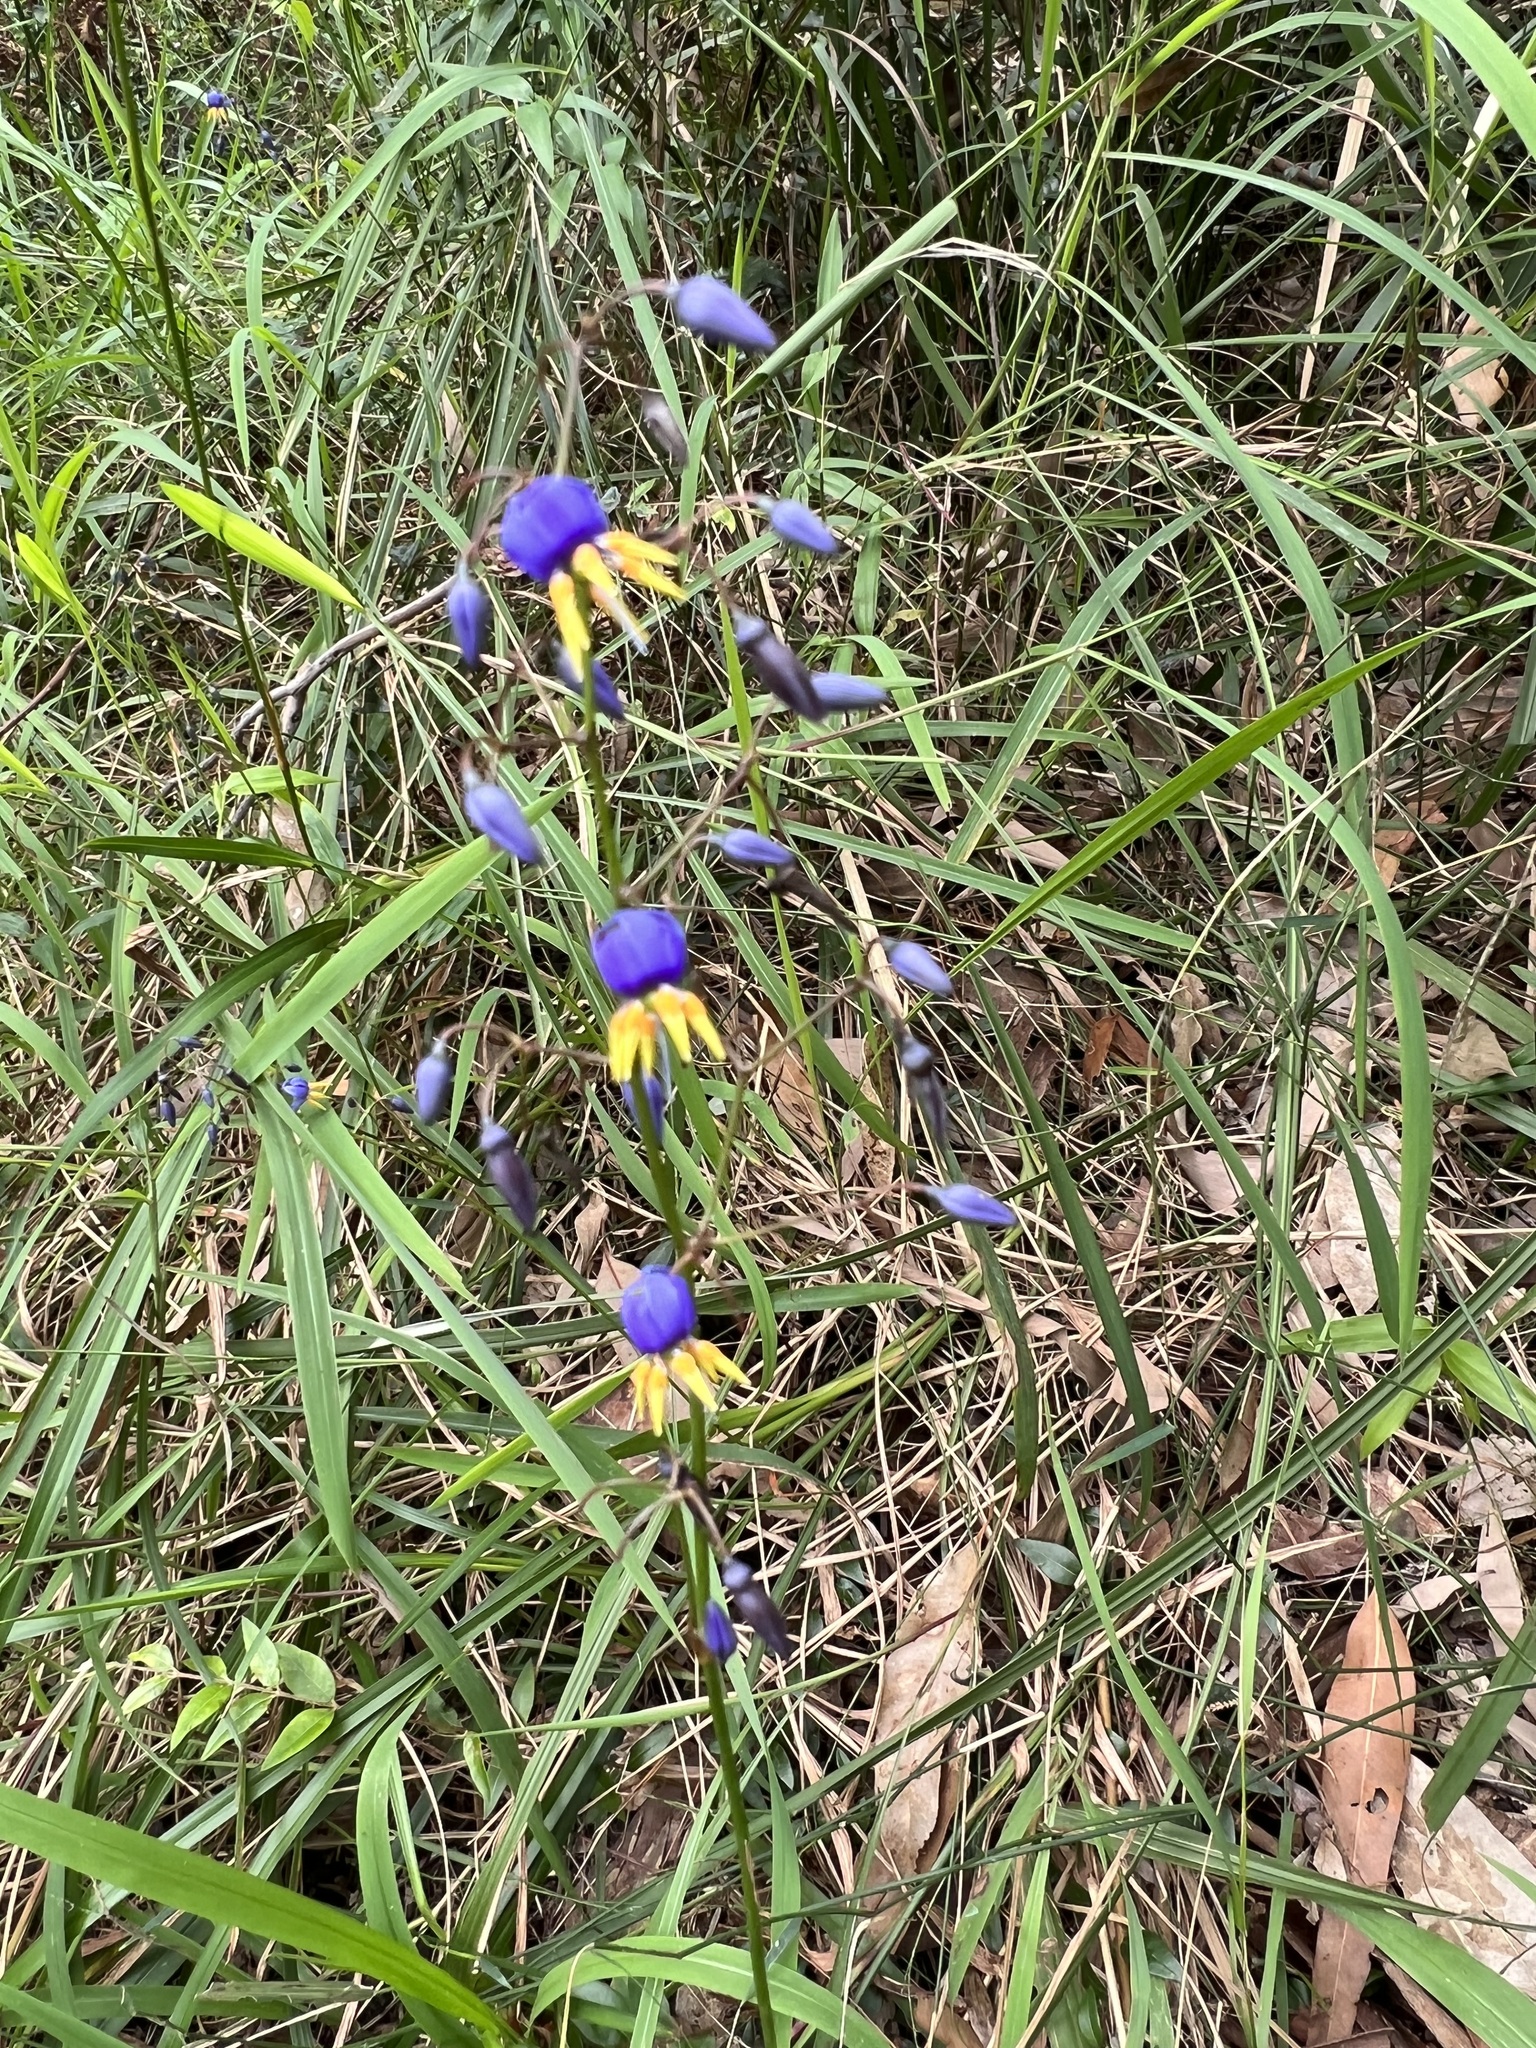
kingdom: Plantae
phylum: Tracheophyta
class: Liliopsida
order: Asparagales
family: Asphodelaceae
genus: Dianella
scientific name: Dianella caerulea
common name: Blue flax-lily
